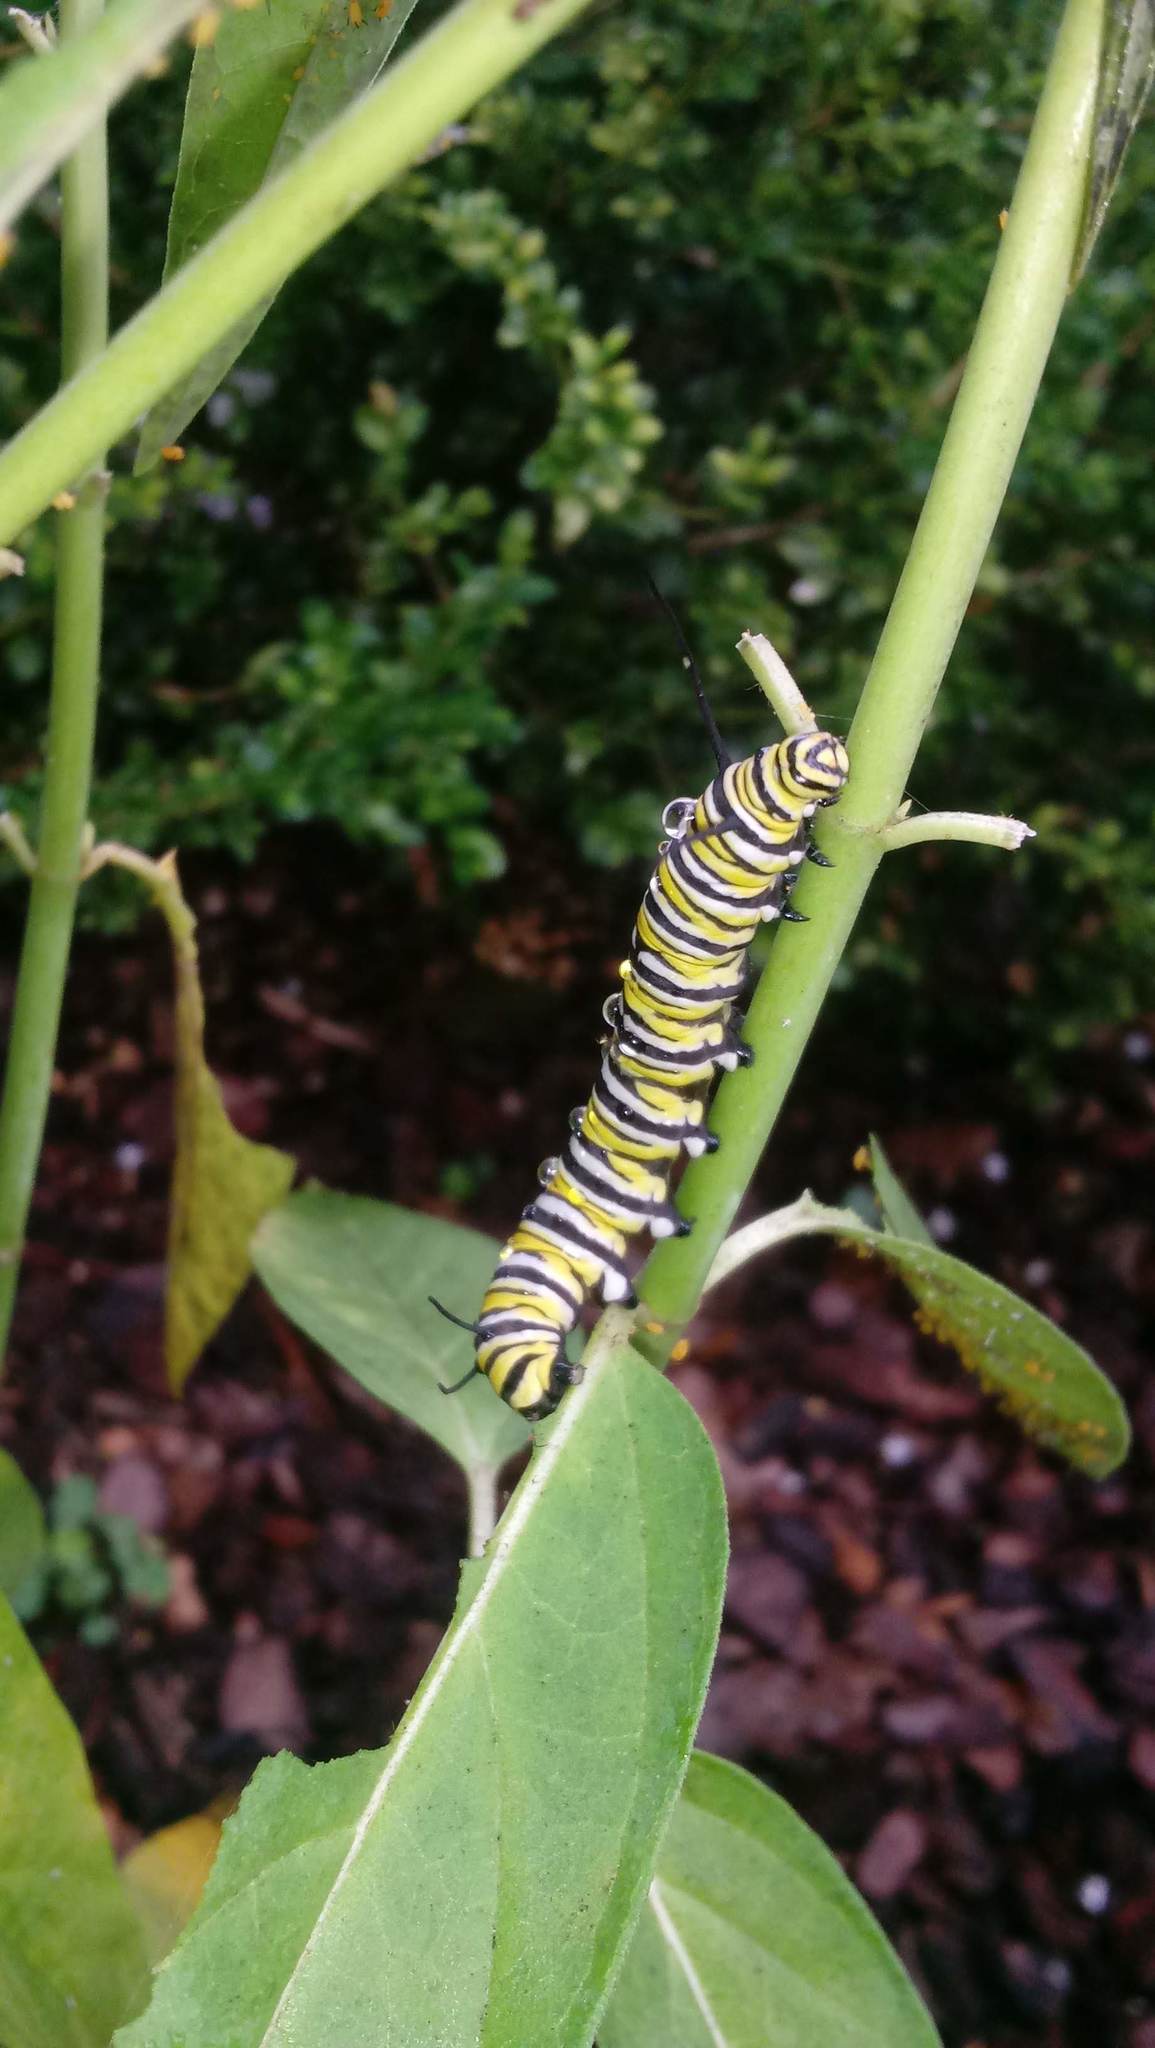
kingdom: Animalia
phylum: Arthropoda
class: Insecta
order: Lepidoptera
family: Nymphalidae
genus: Danaus
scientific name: Danaus plexippus
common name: Monarch
